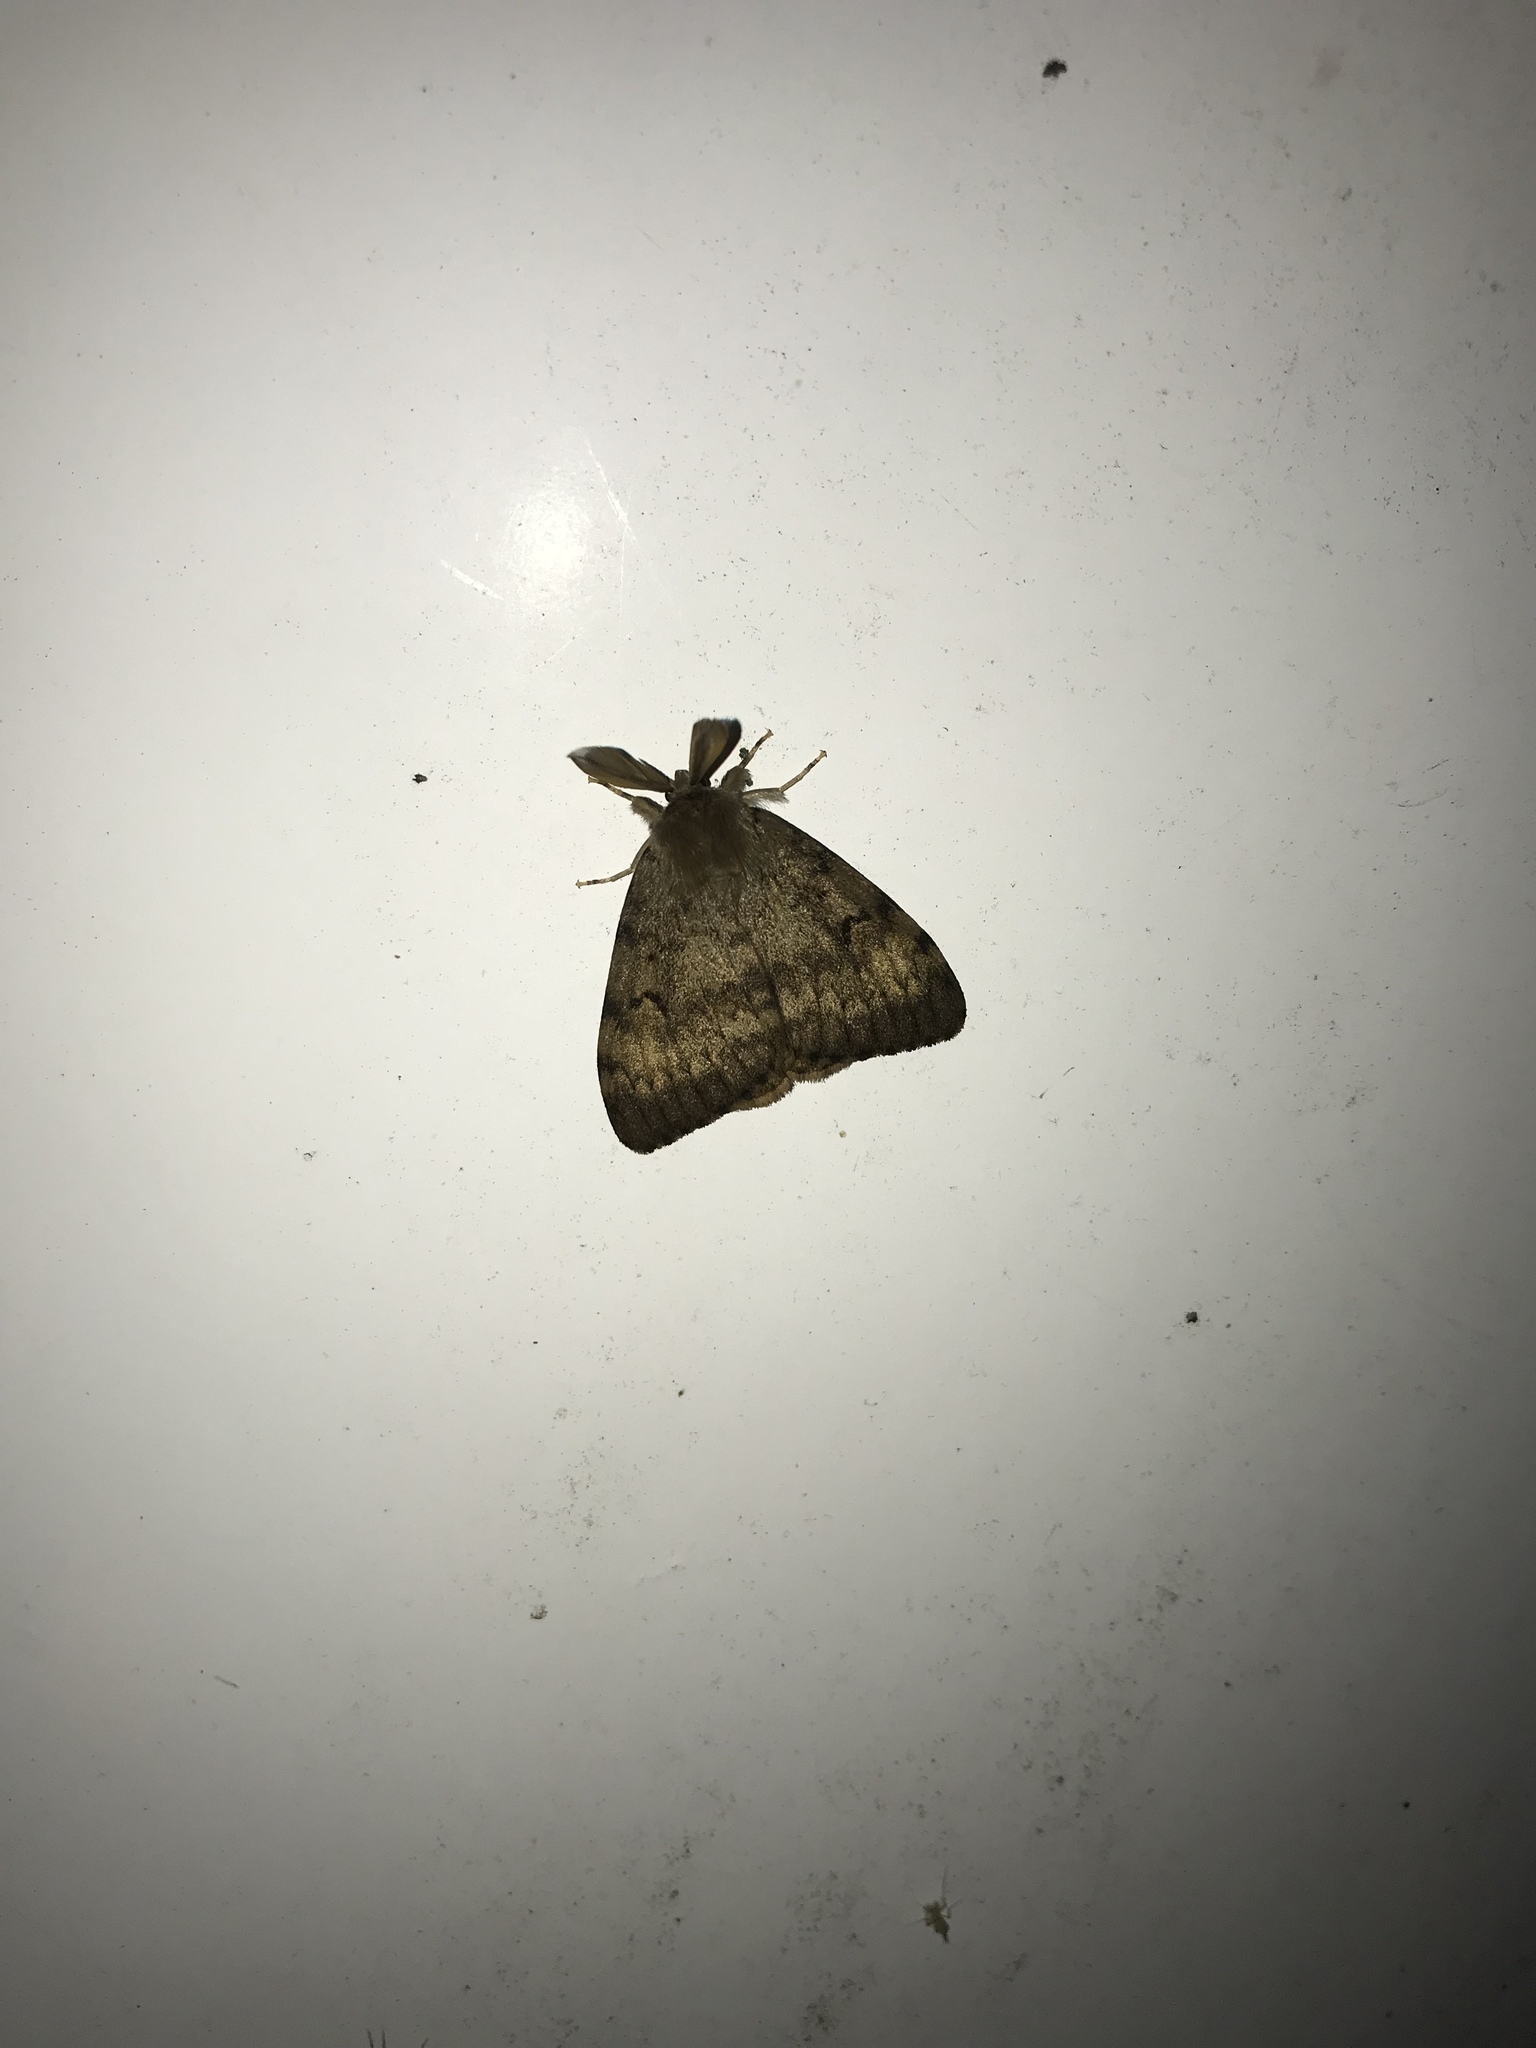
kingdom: Animalia
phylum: Arthropoda
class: Insecta
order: Lepidoptera
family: Erebidae
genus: Lymantria
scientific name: Lymantria dispar
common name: Gypsy moth
